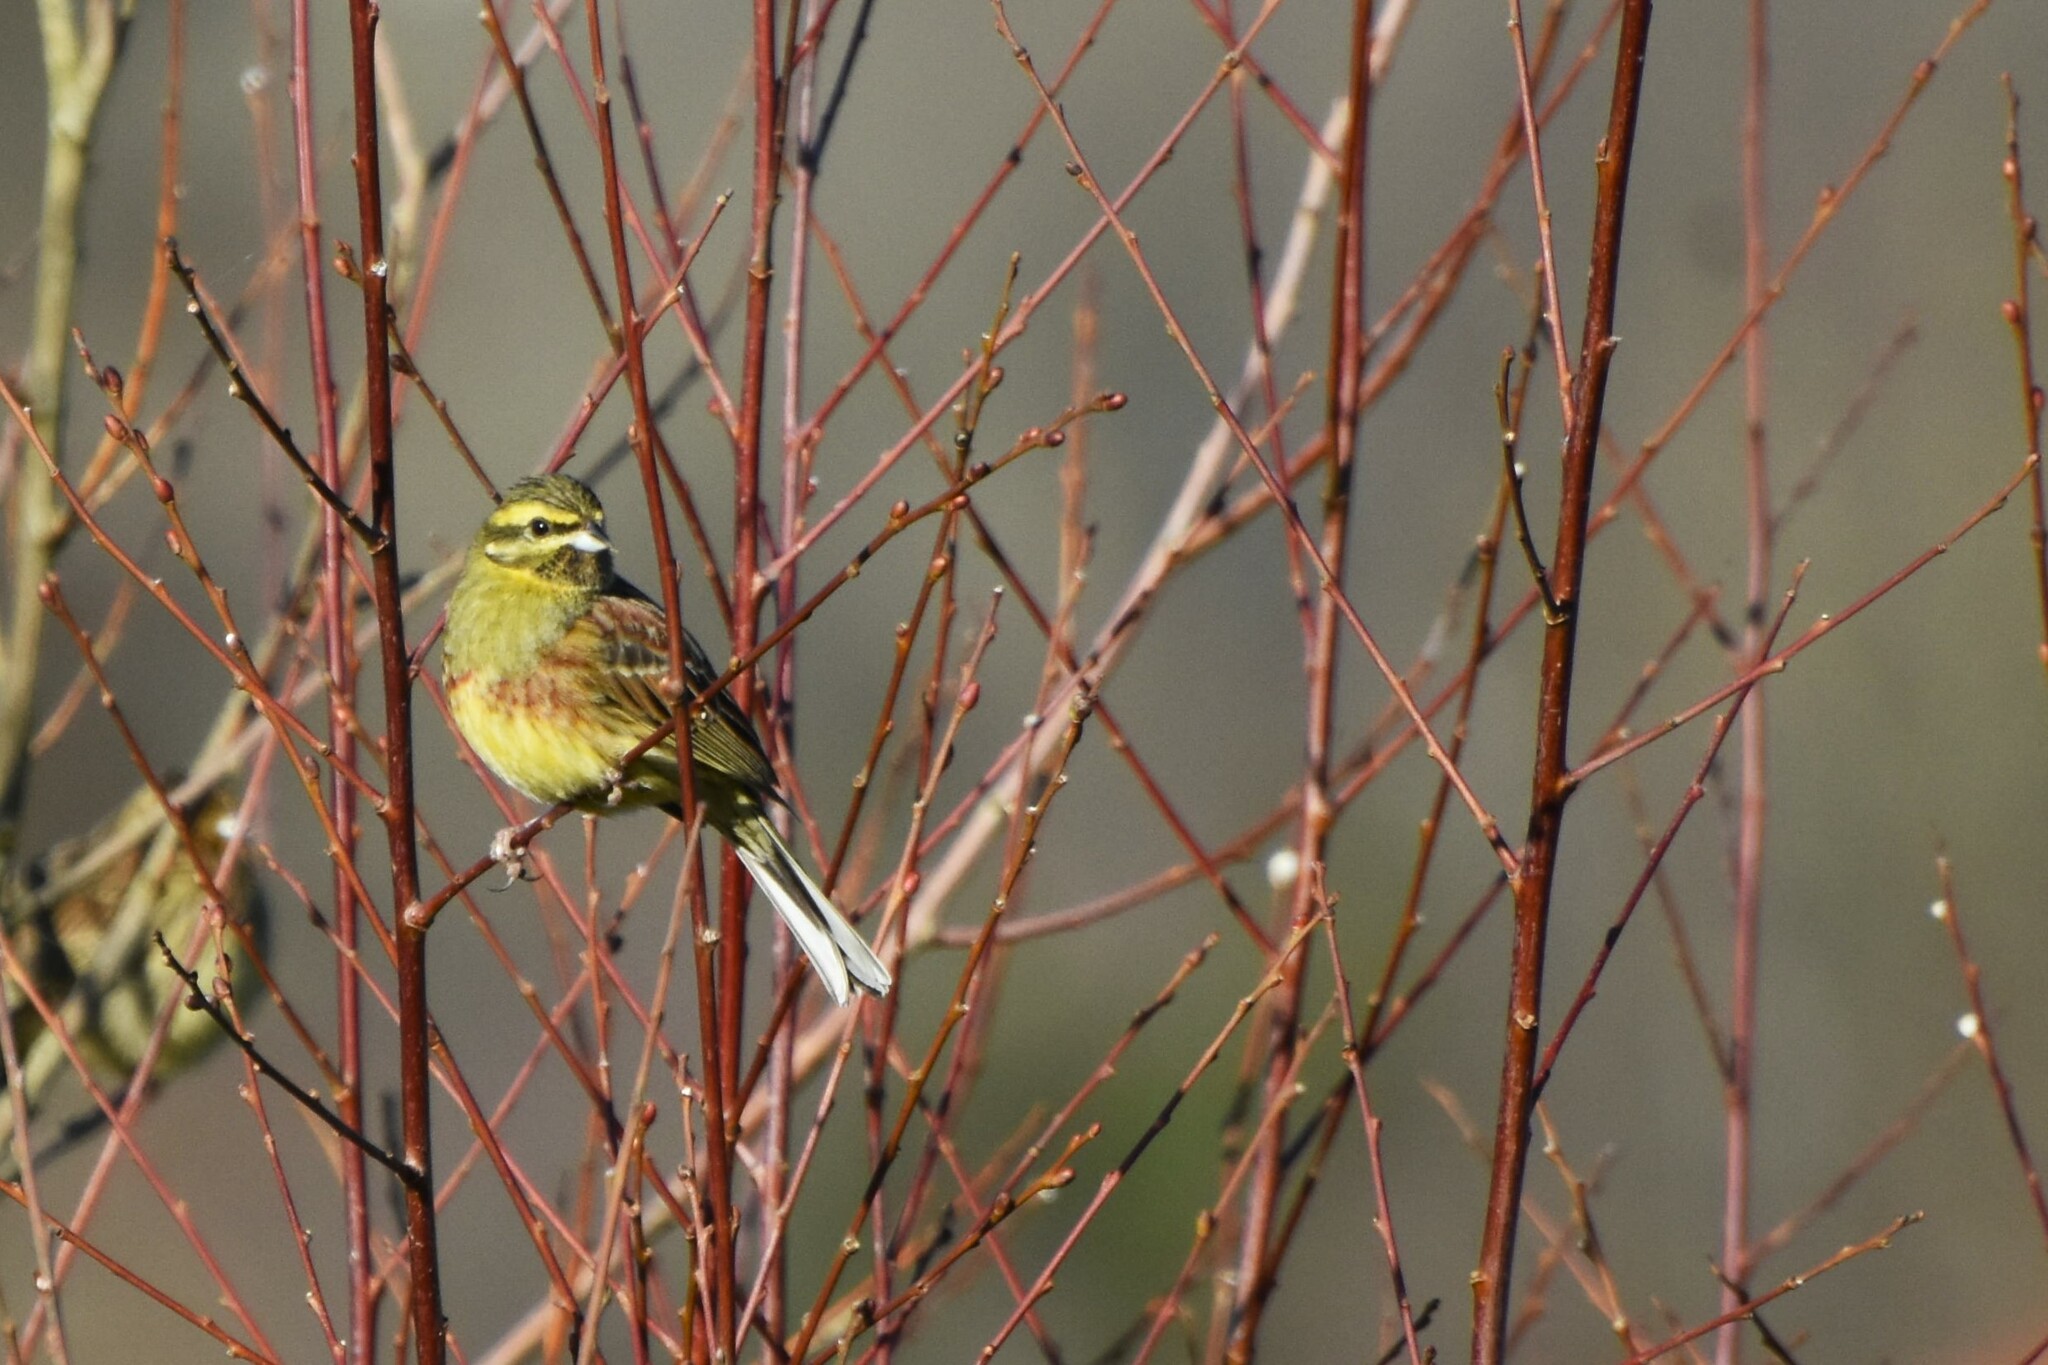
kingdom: Animalia
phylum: Chordata
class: Aves
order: Passeriformes
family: Emberizidae
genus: Emberiza
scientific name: Emberiza cirlus
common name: Cirl bunting
